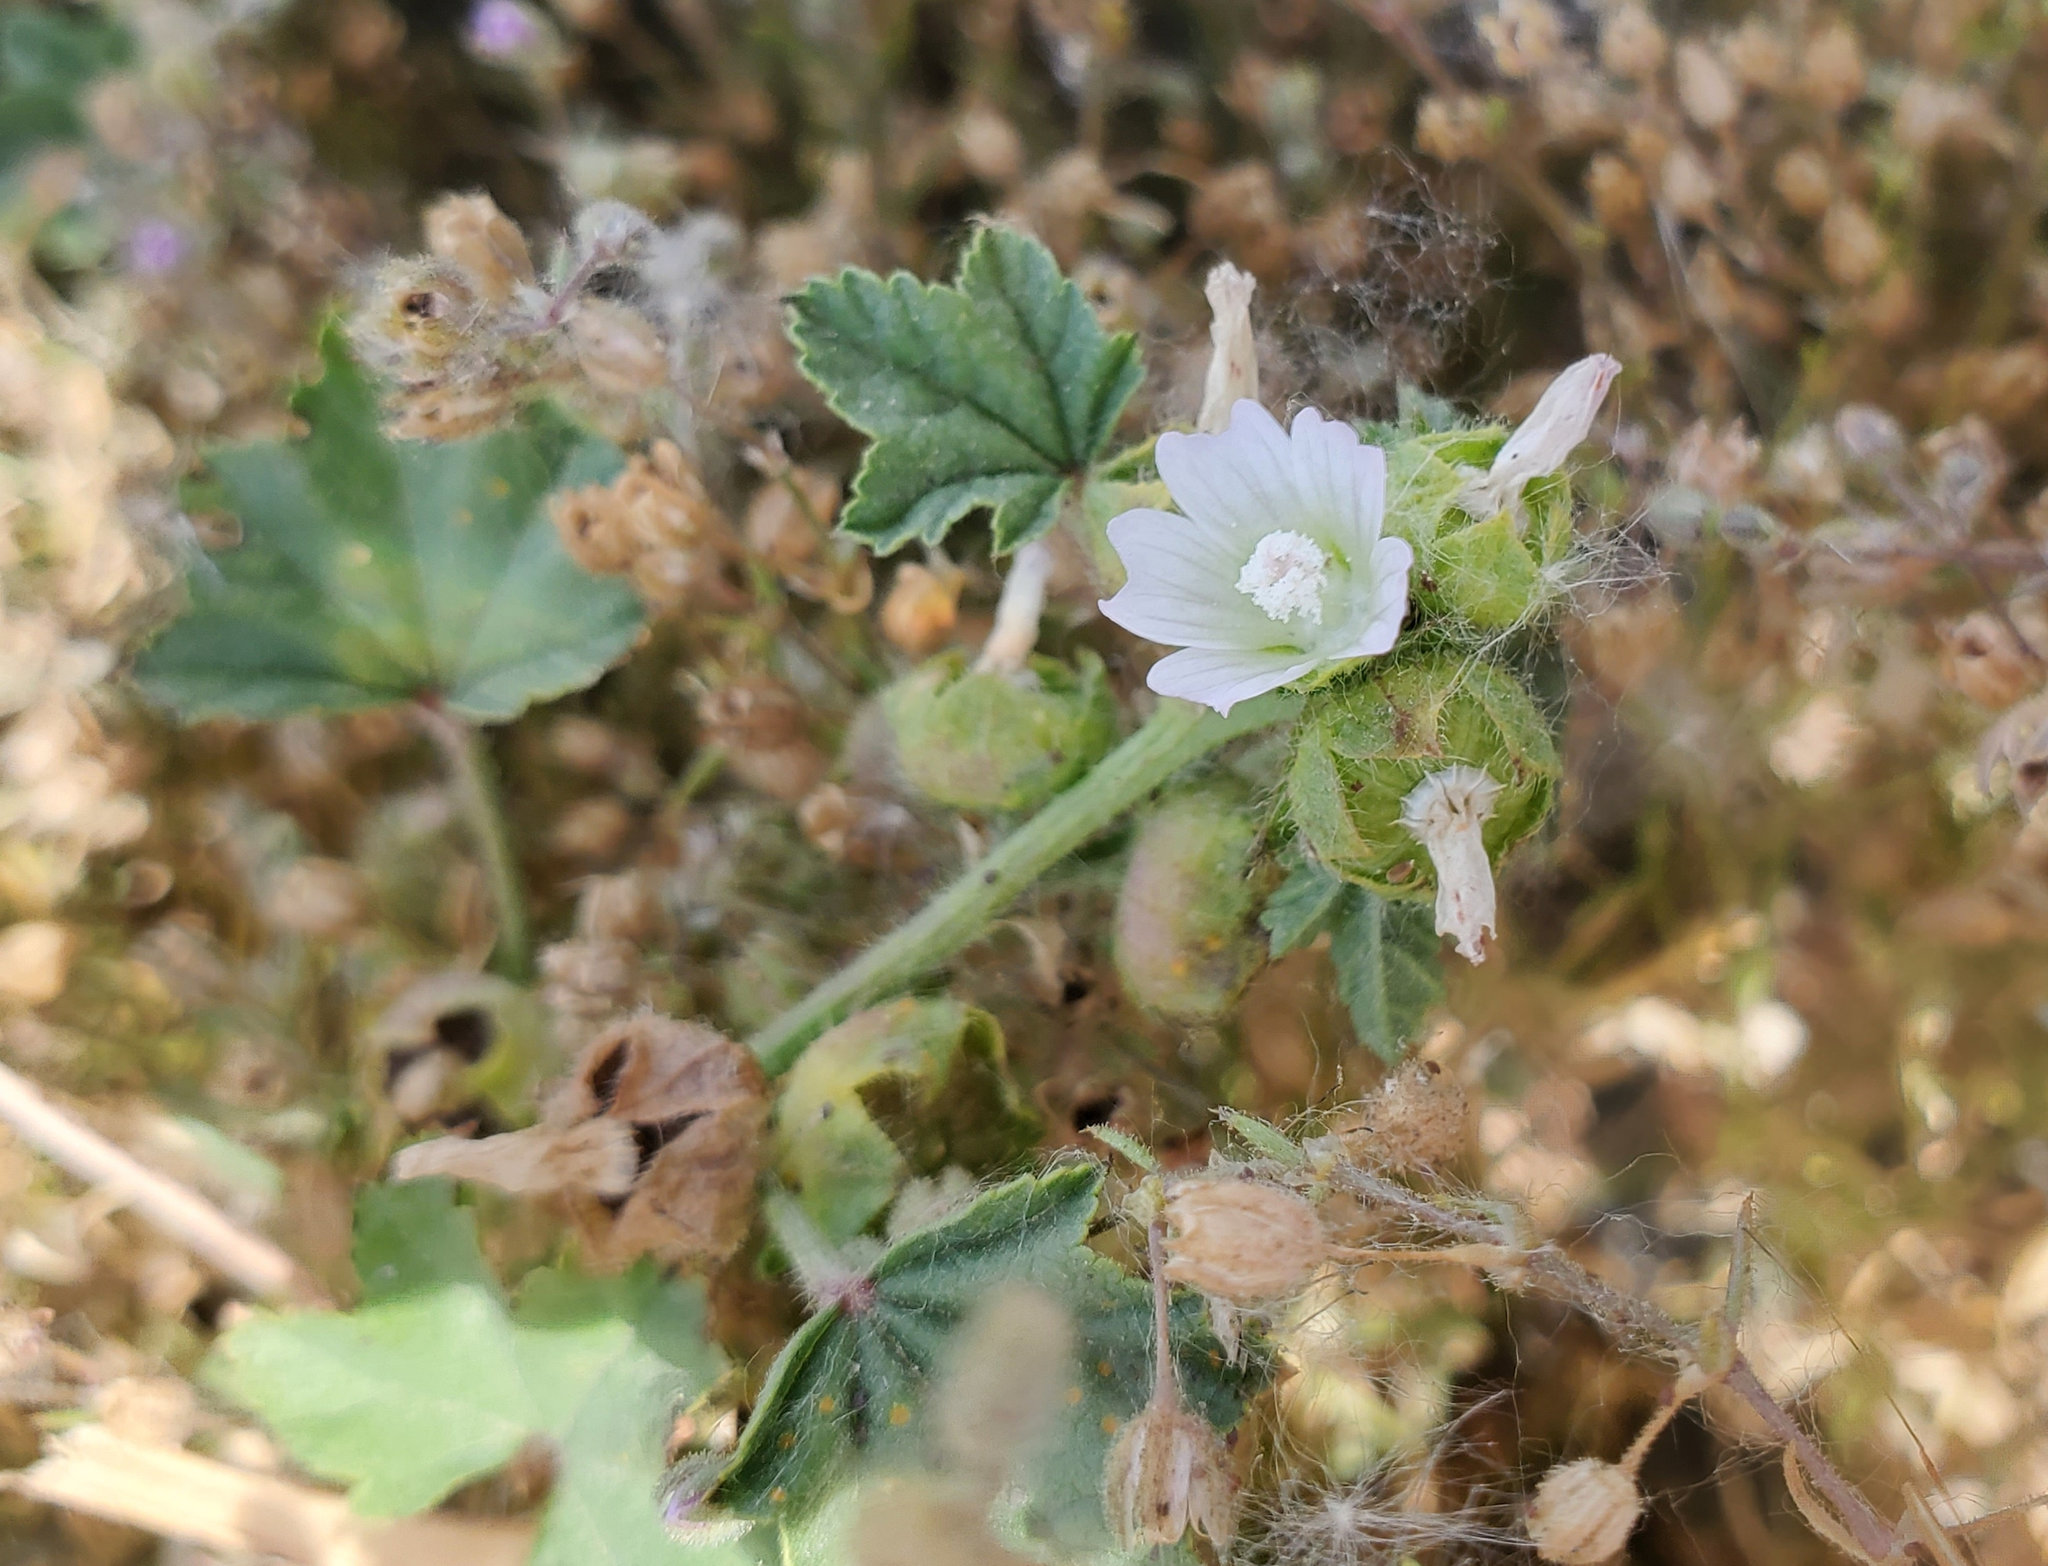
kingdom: Plantae
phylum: Tracheophyta
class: Magnoliopsida
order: Malvales
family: Malvaceae
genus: Malva
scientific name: Malva parviflora
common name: Least mallow
